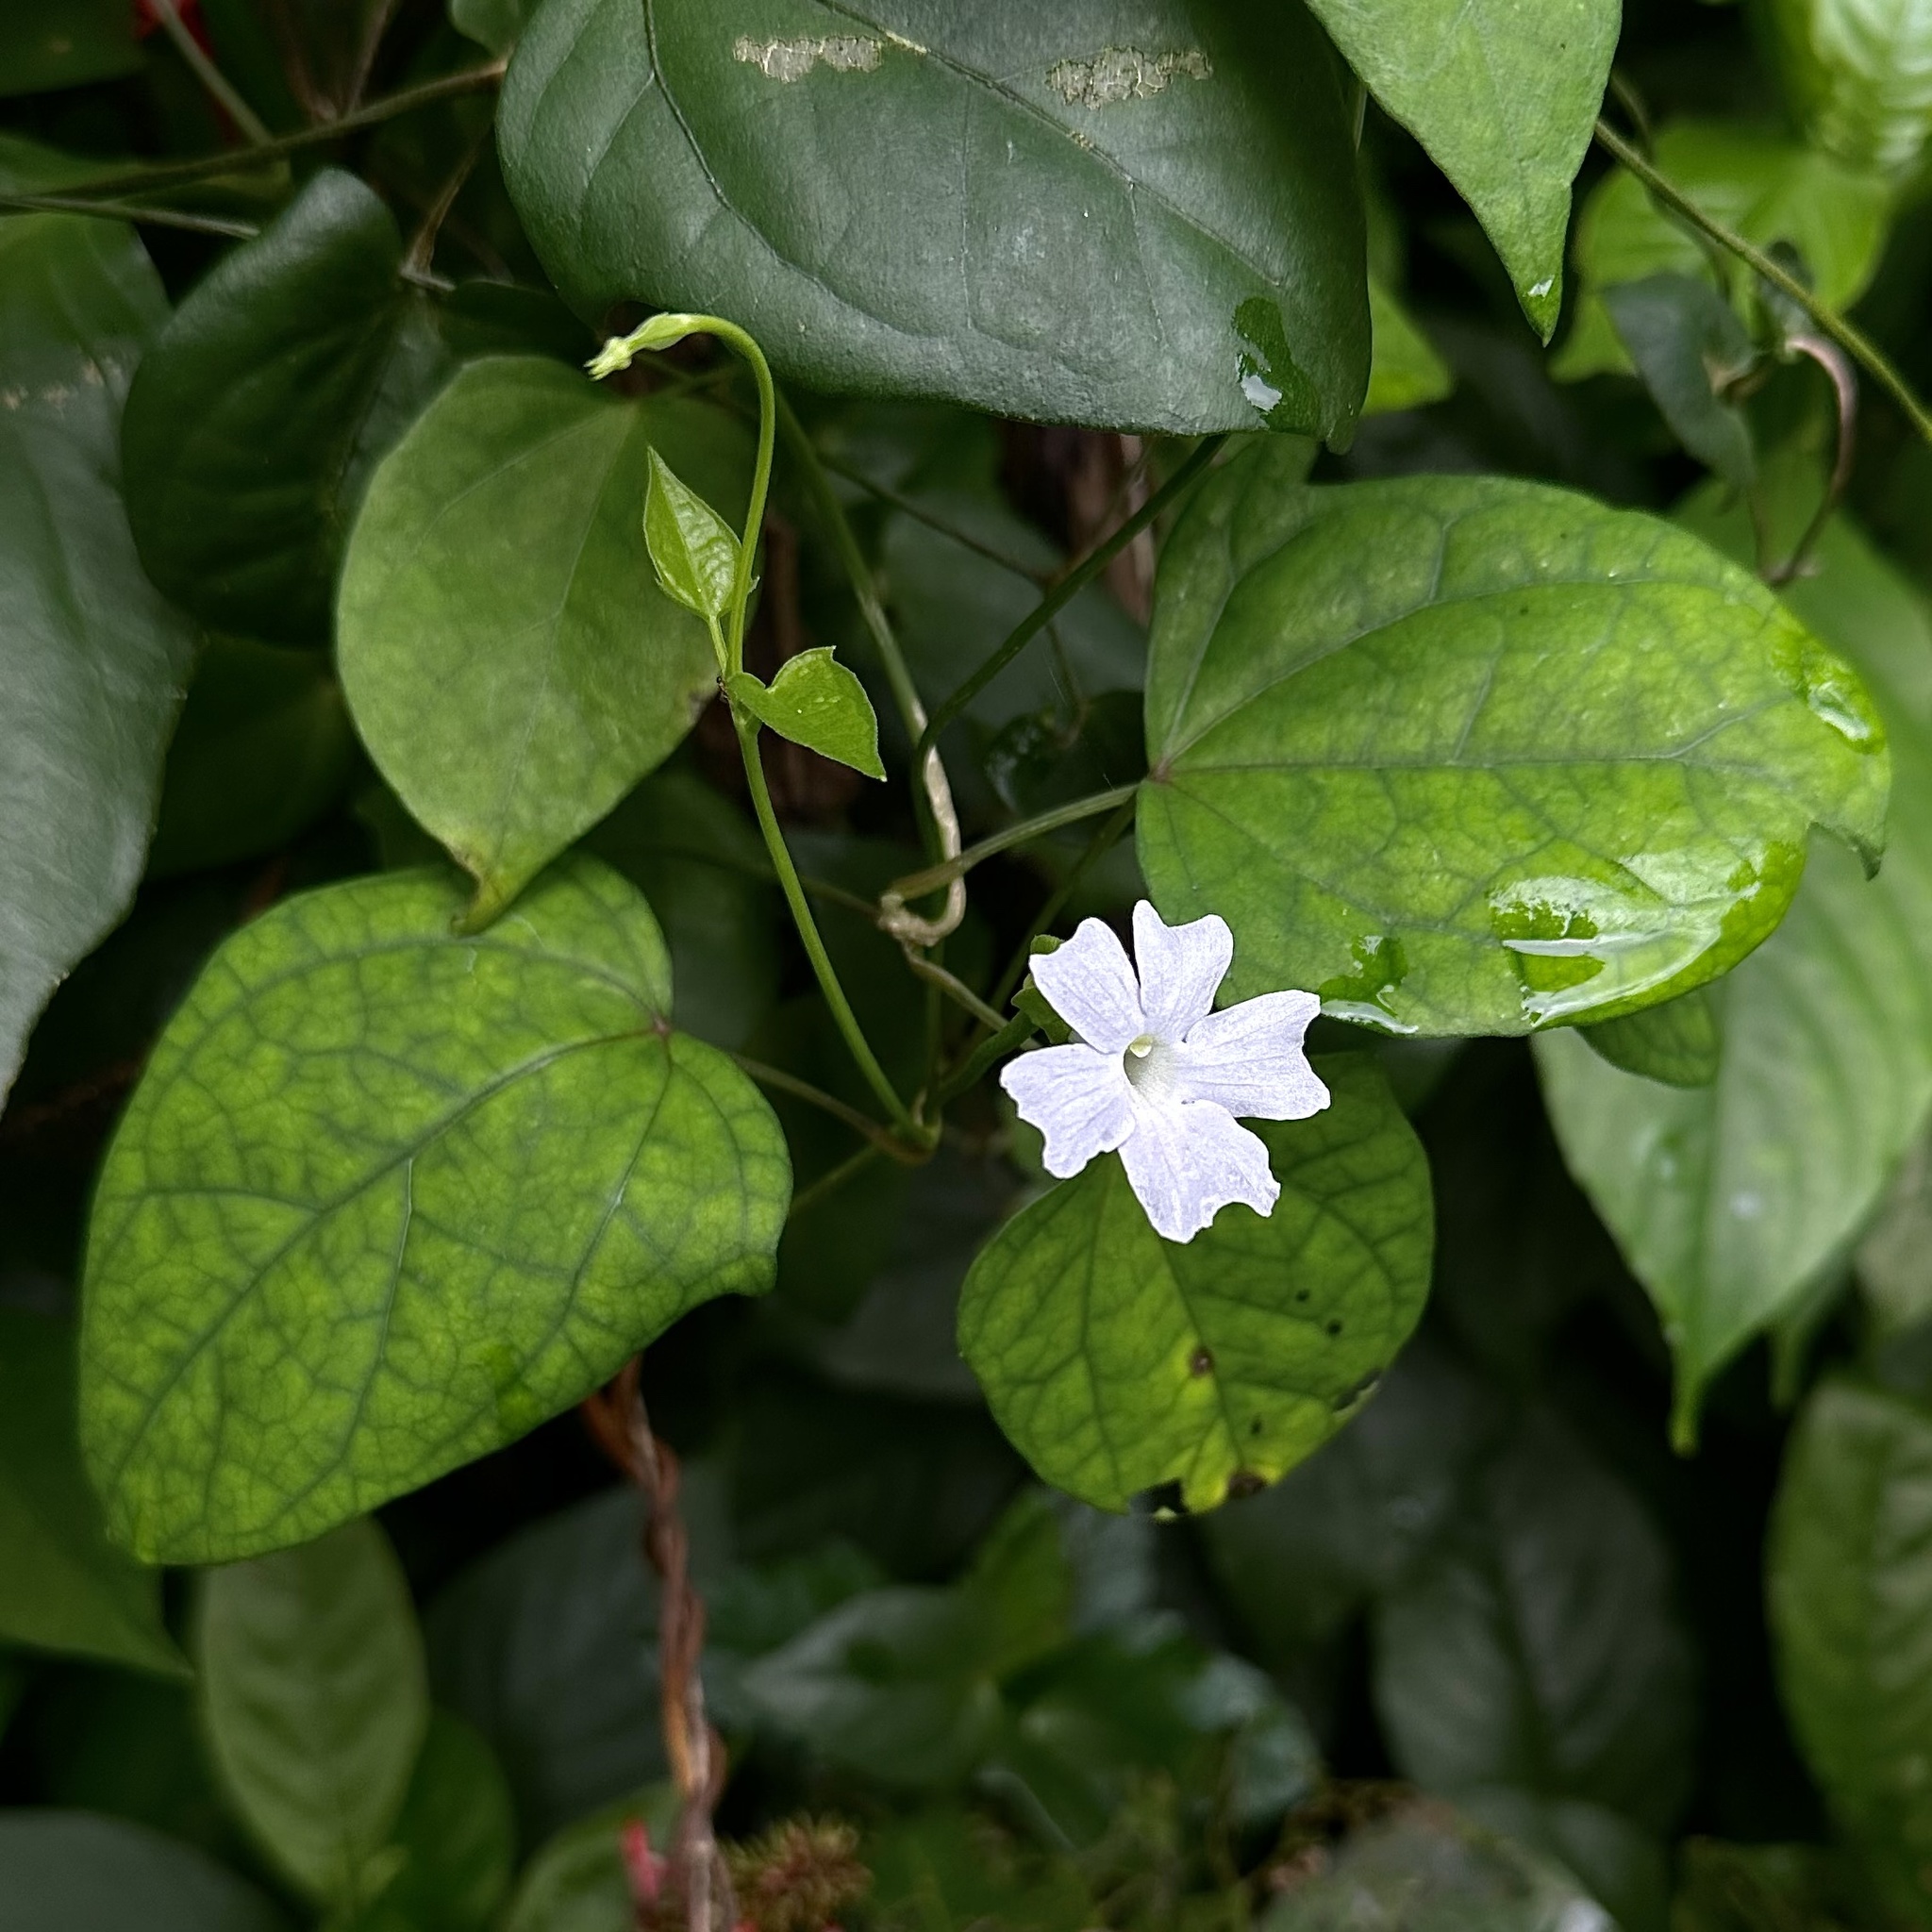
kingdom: Plantae
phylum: Tracheophyta
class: Magnoliopsida
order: Lamiales
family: Acanthaceae
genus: Thunbergia
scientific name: Thunbergia fragrans
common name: Whitelady
